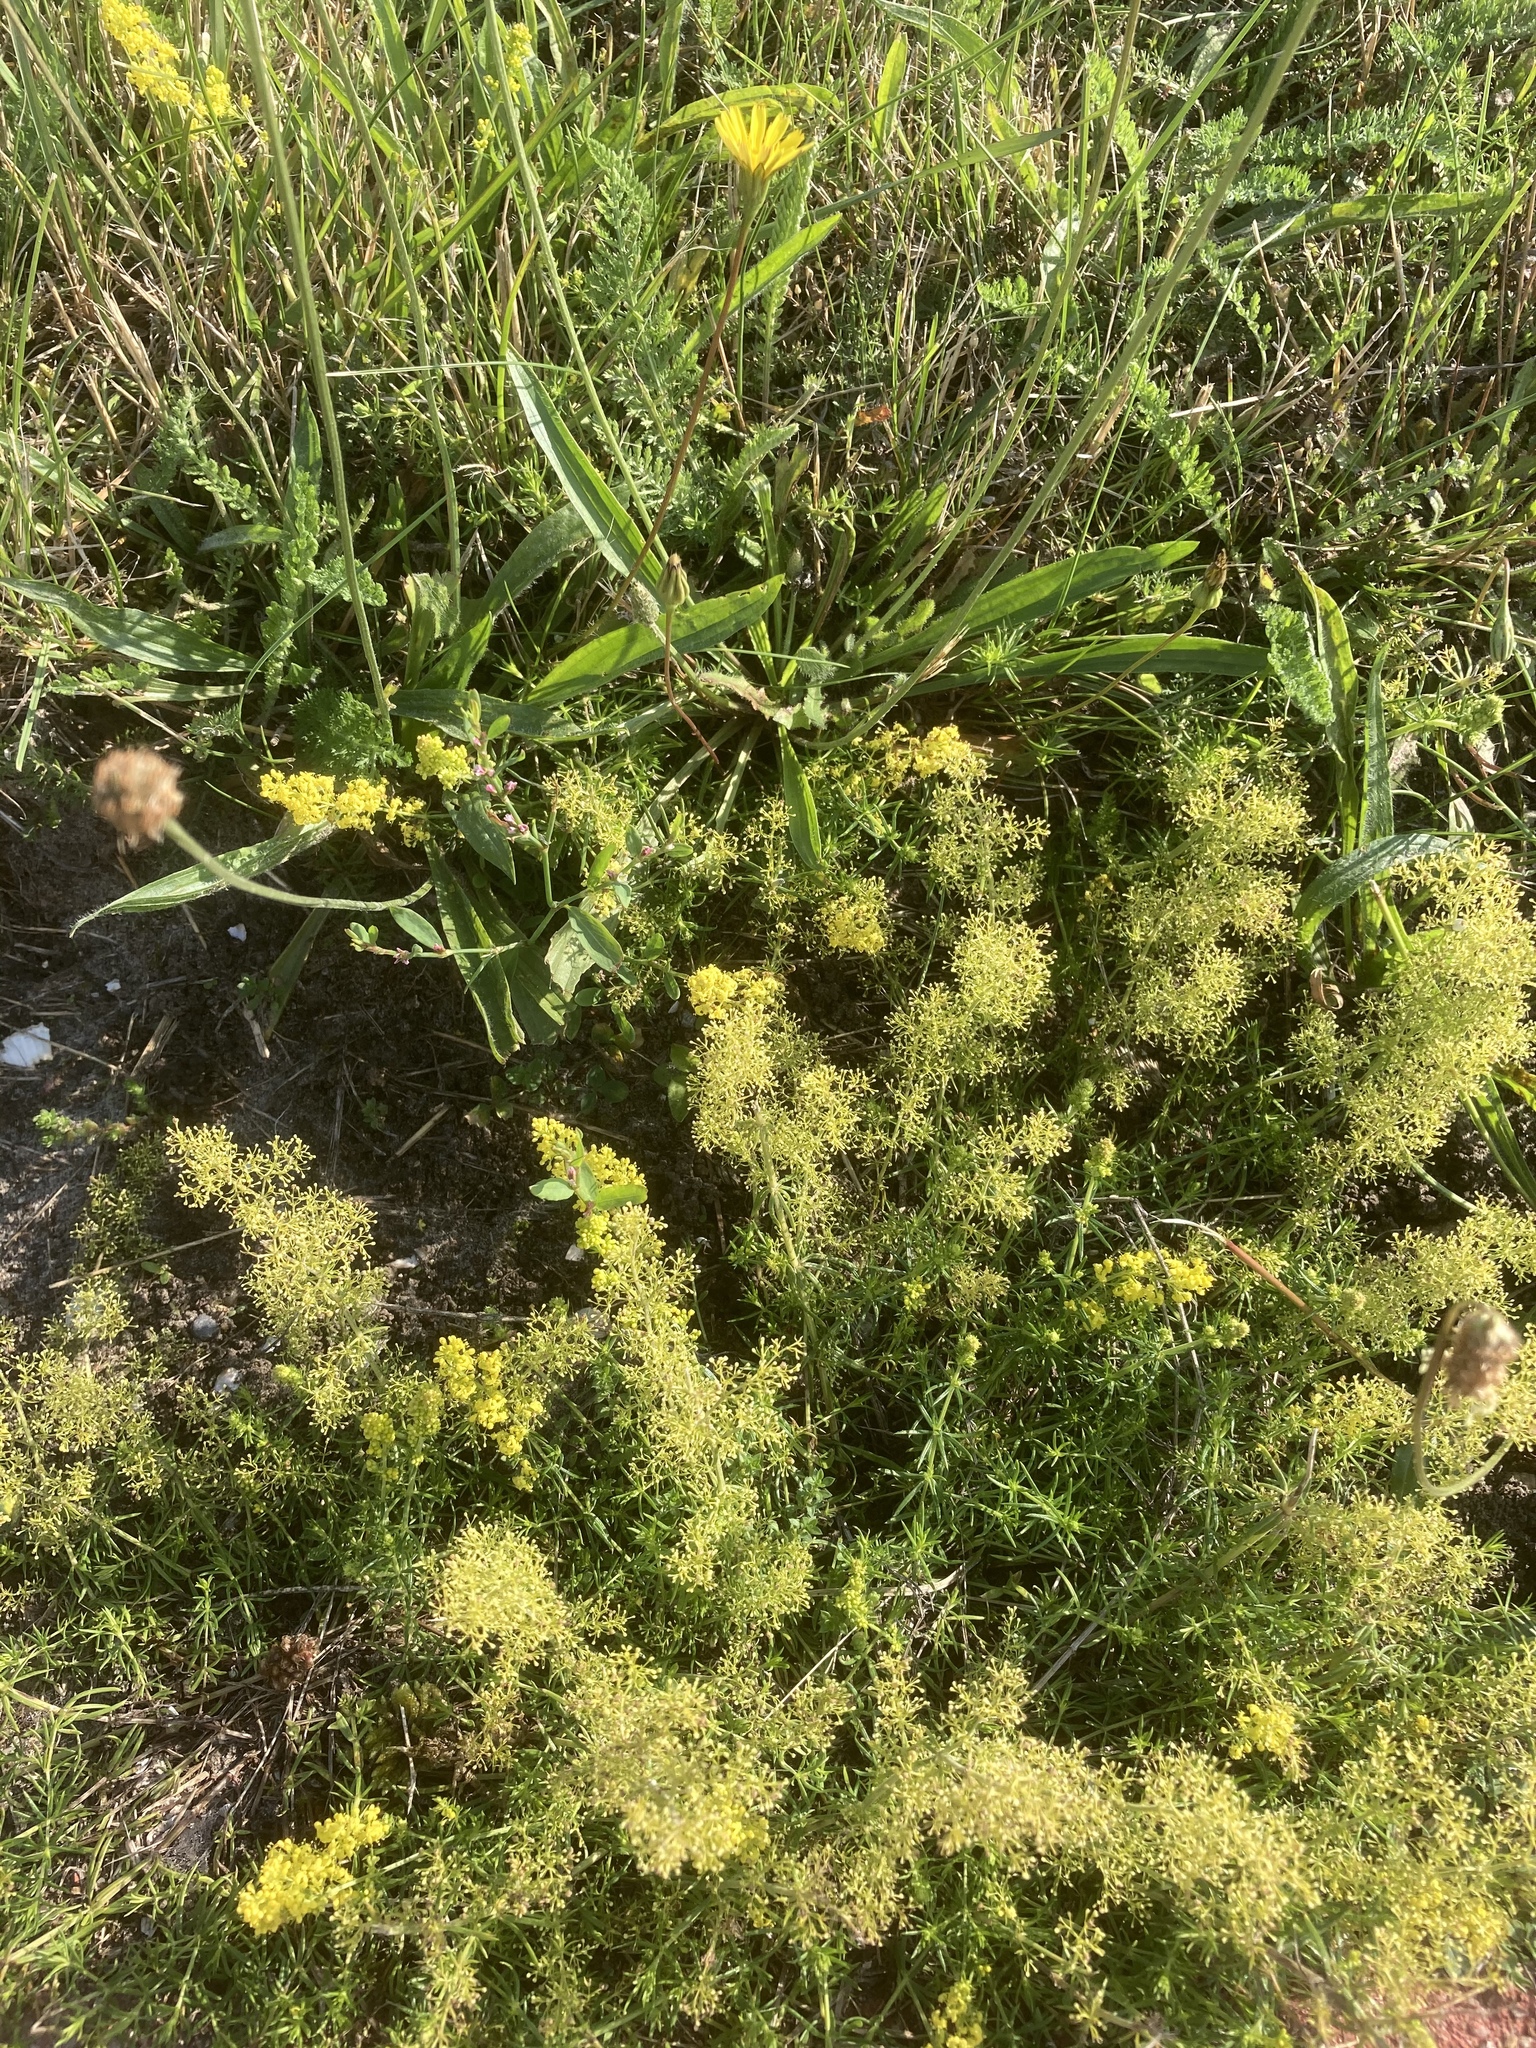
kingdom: Plantae
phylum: Tracheophyta
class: Magnoliopsida
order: Gentianales
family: Rubiaceae
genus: Galium
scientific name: Galium verum
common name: Lady's bedstraw
